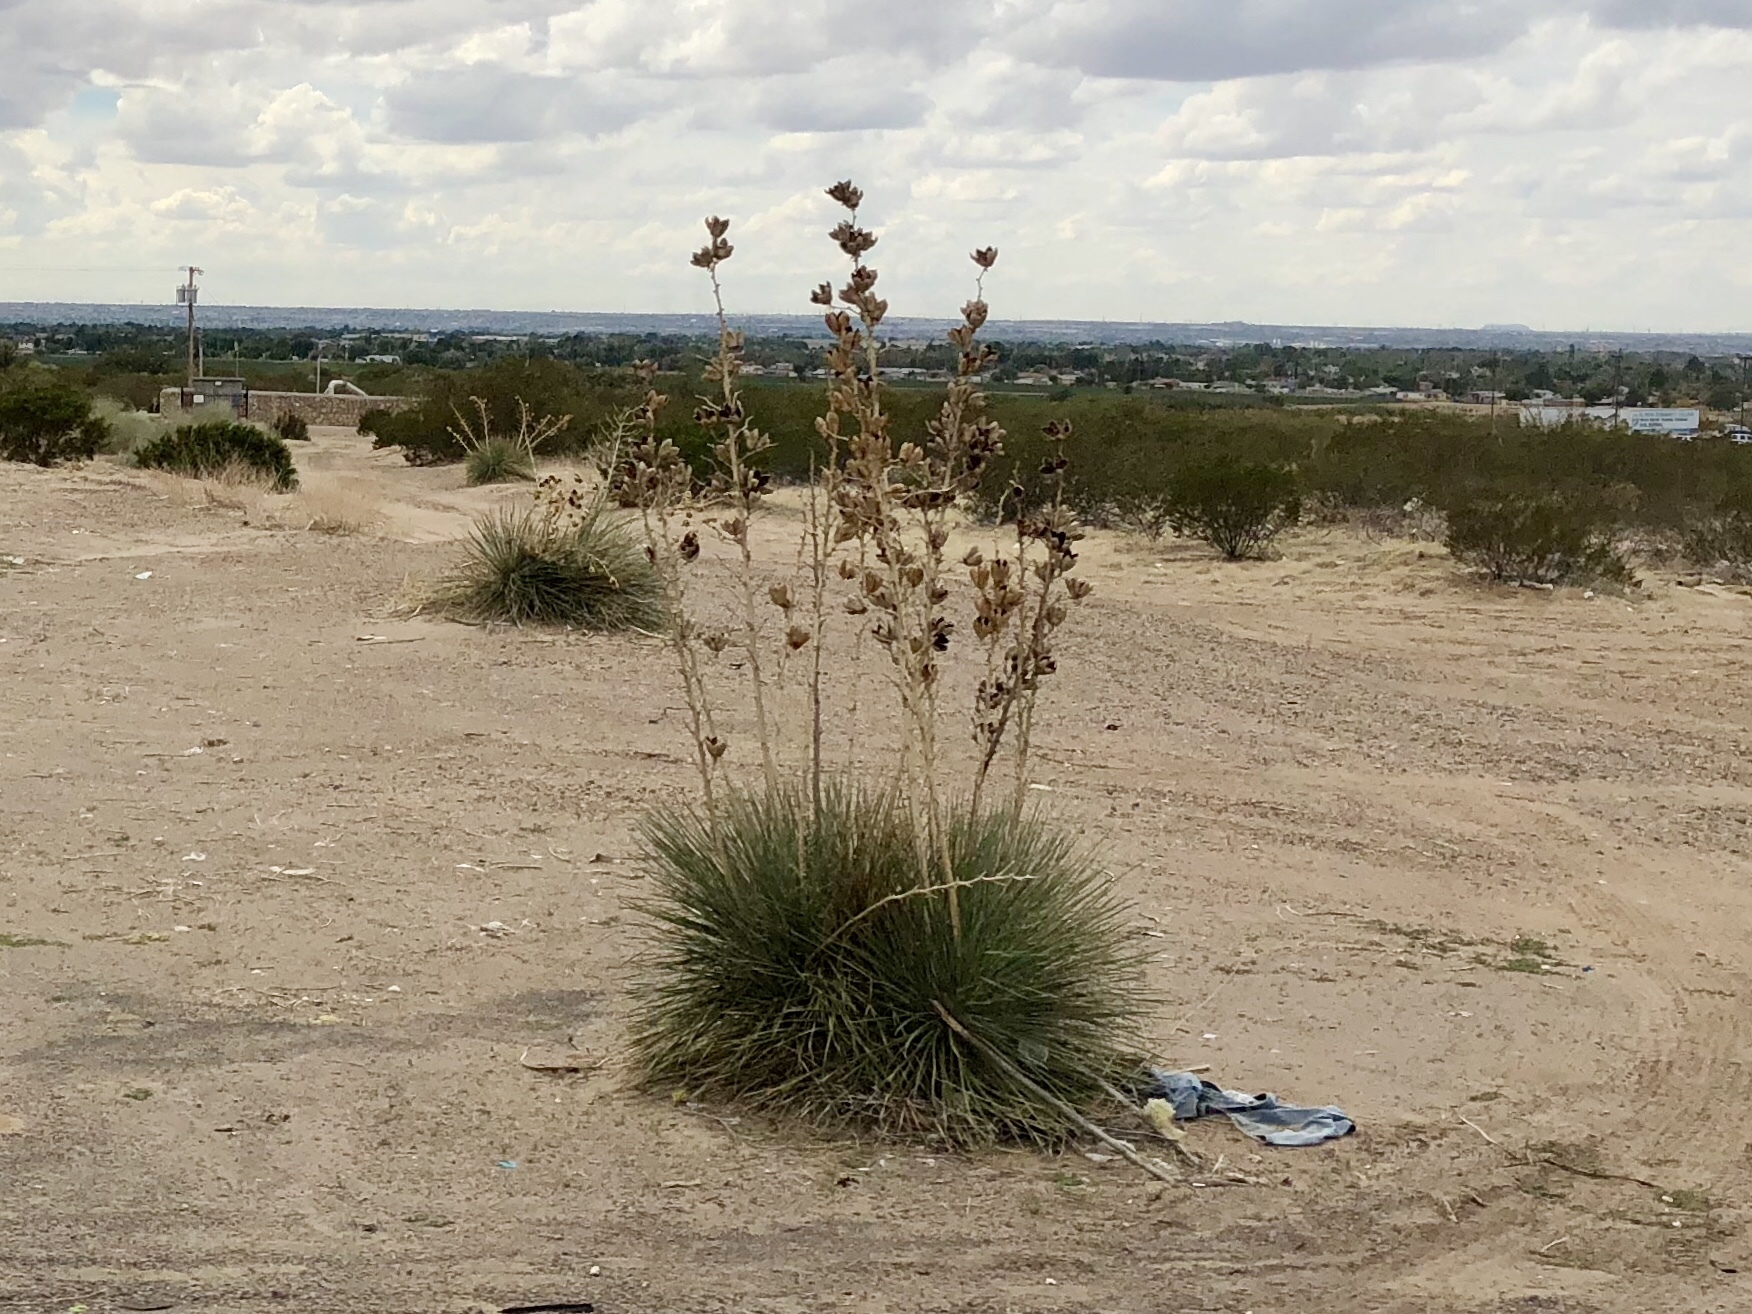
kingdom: Plantae
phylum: Tracheophyta
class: Liliopsida
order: Asparagales
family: Asparagaceae
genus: Yucca
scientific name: Yucca elata
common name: Palmella
